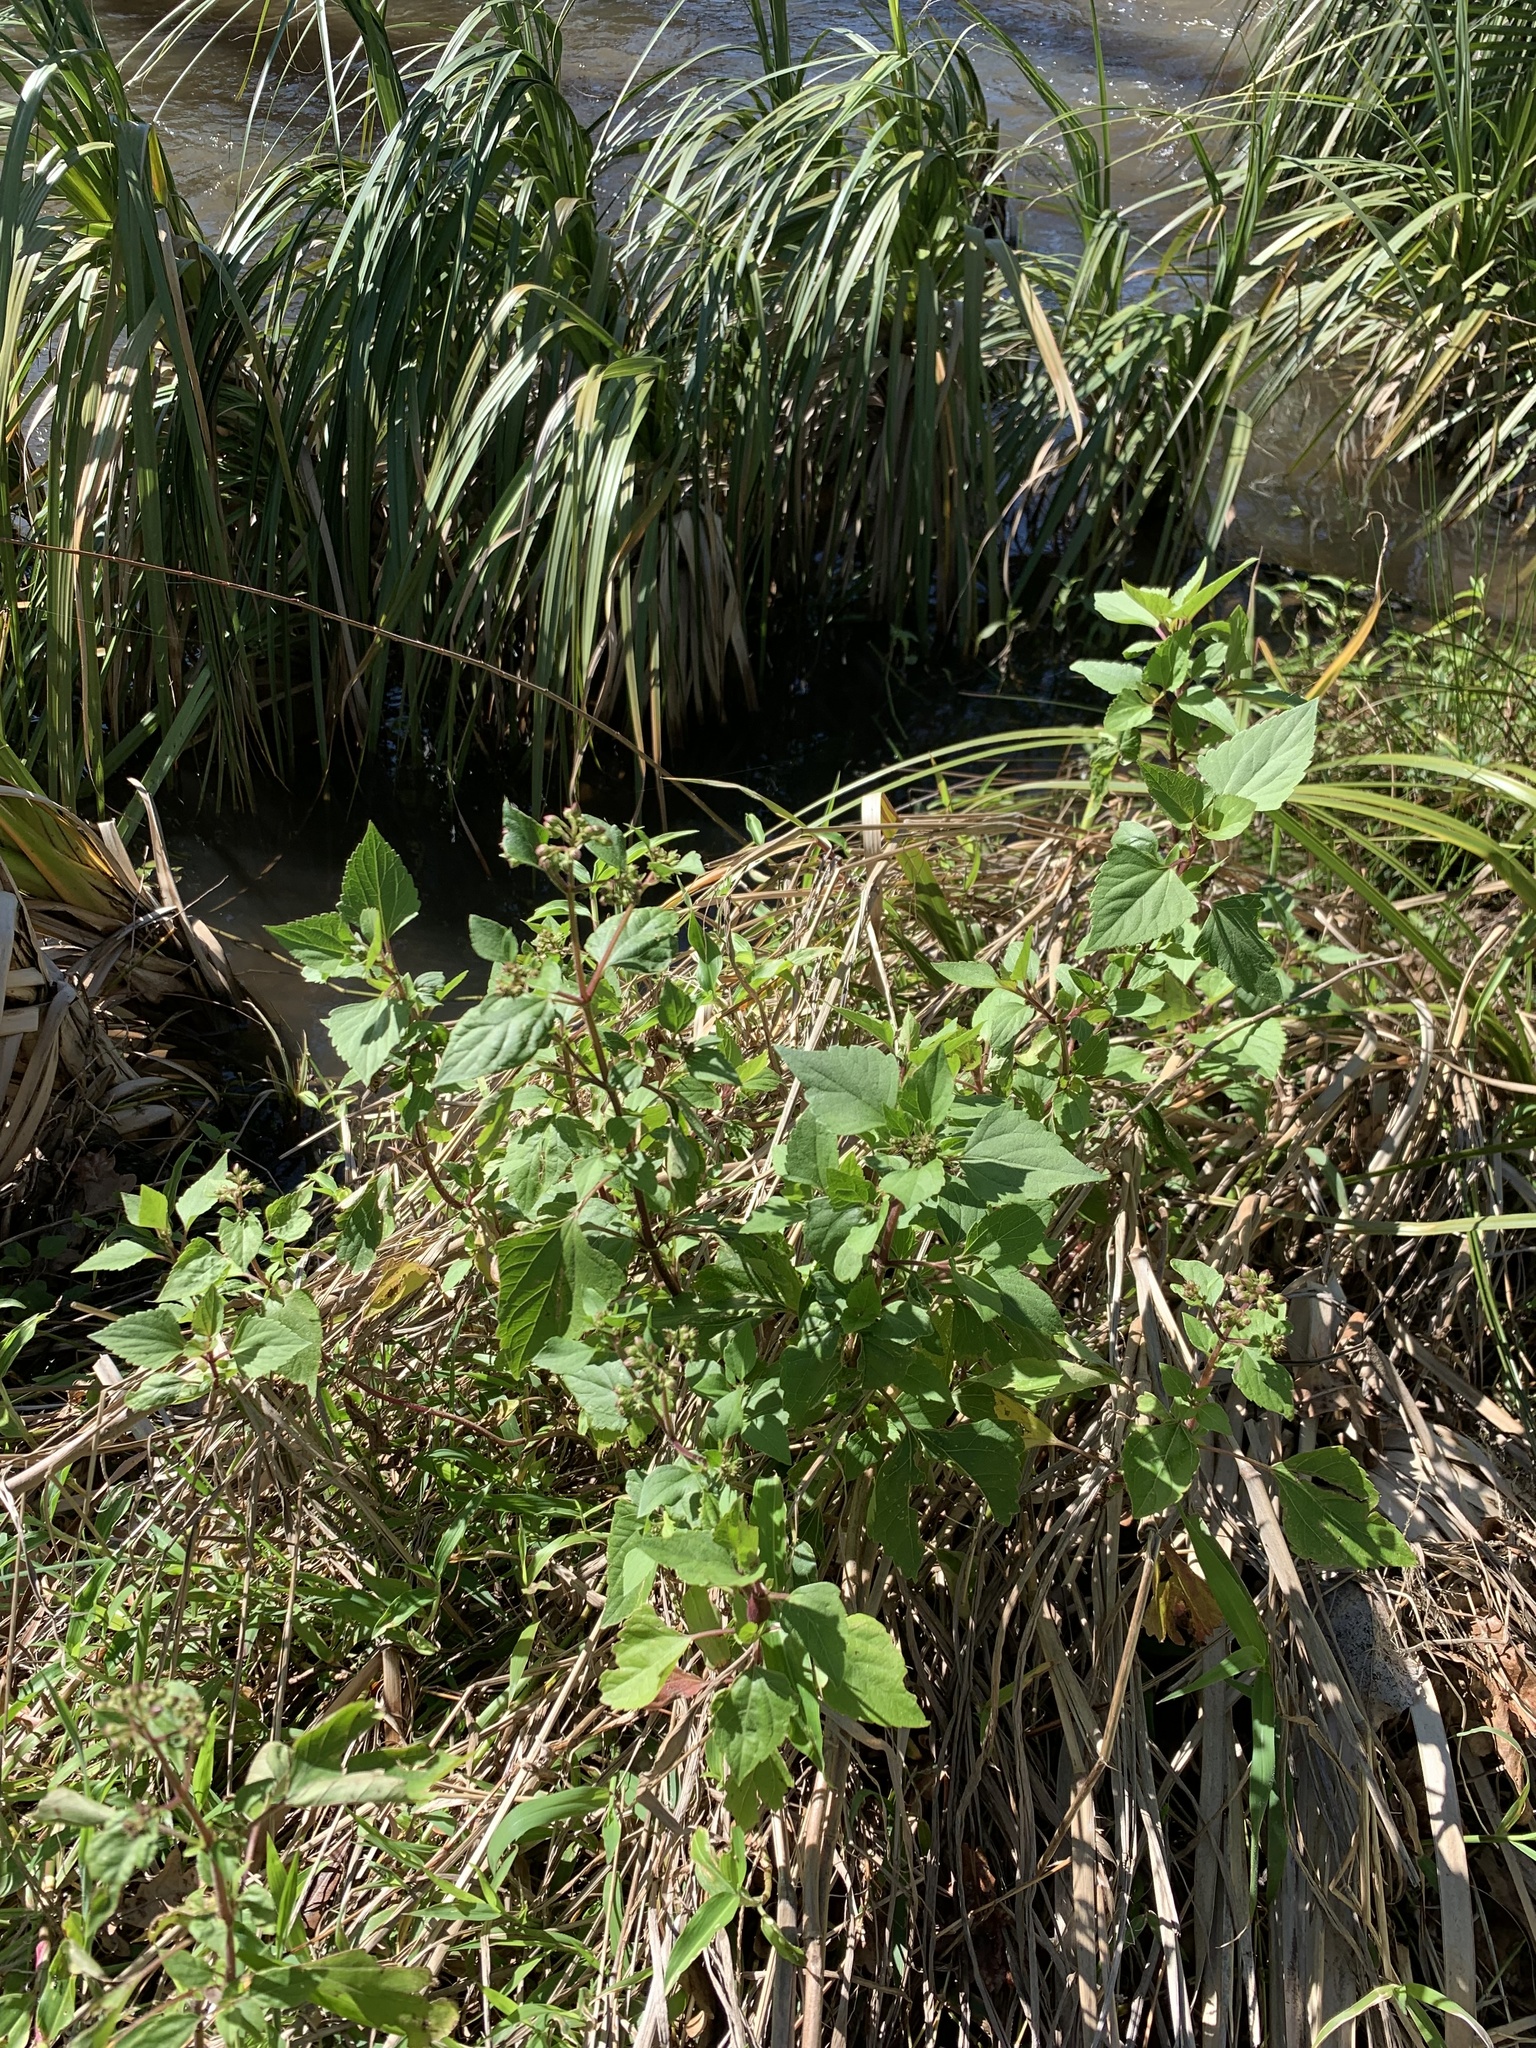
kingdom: Plantae
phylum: Tracheophyta
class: Magnoliopsida
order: Asterales
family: Asteraceae
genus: Ageratina
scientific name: Ageratina adenophora
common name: Sticky snakeroot
